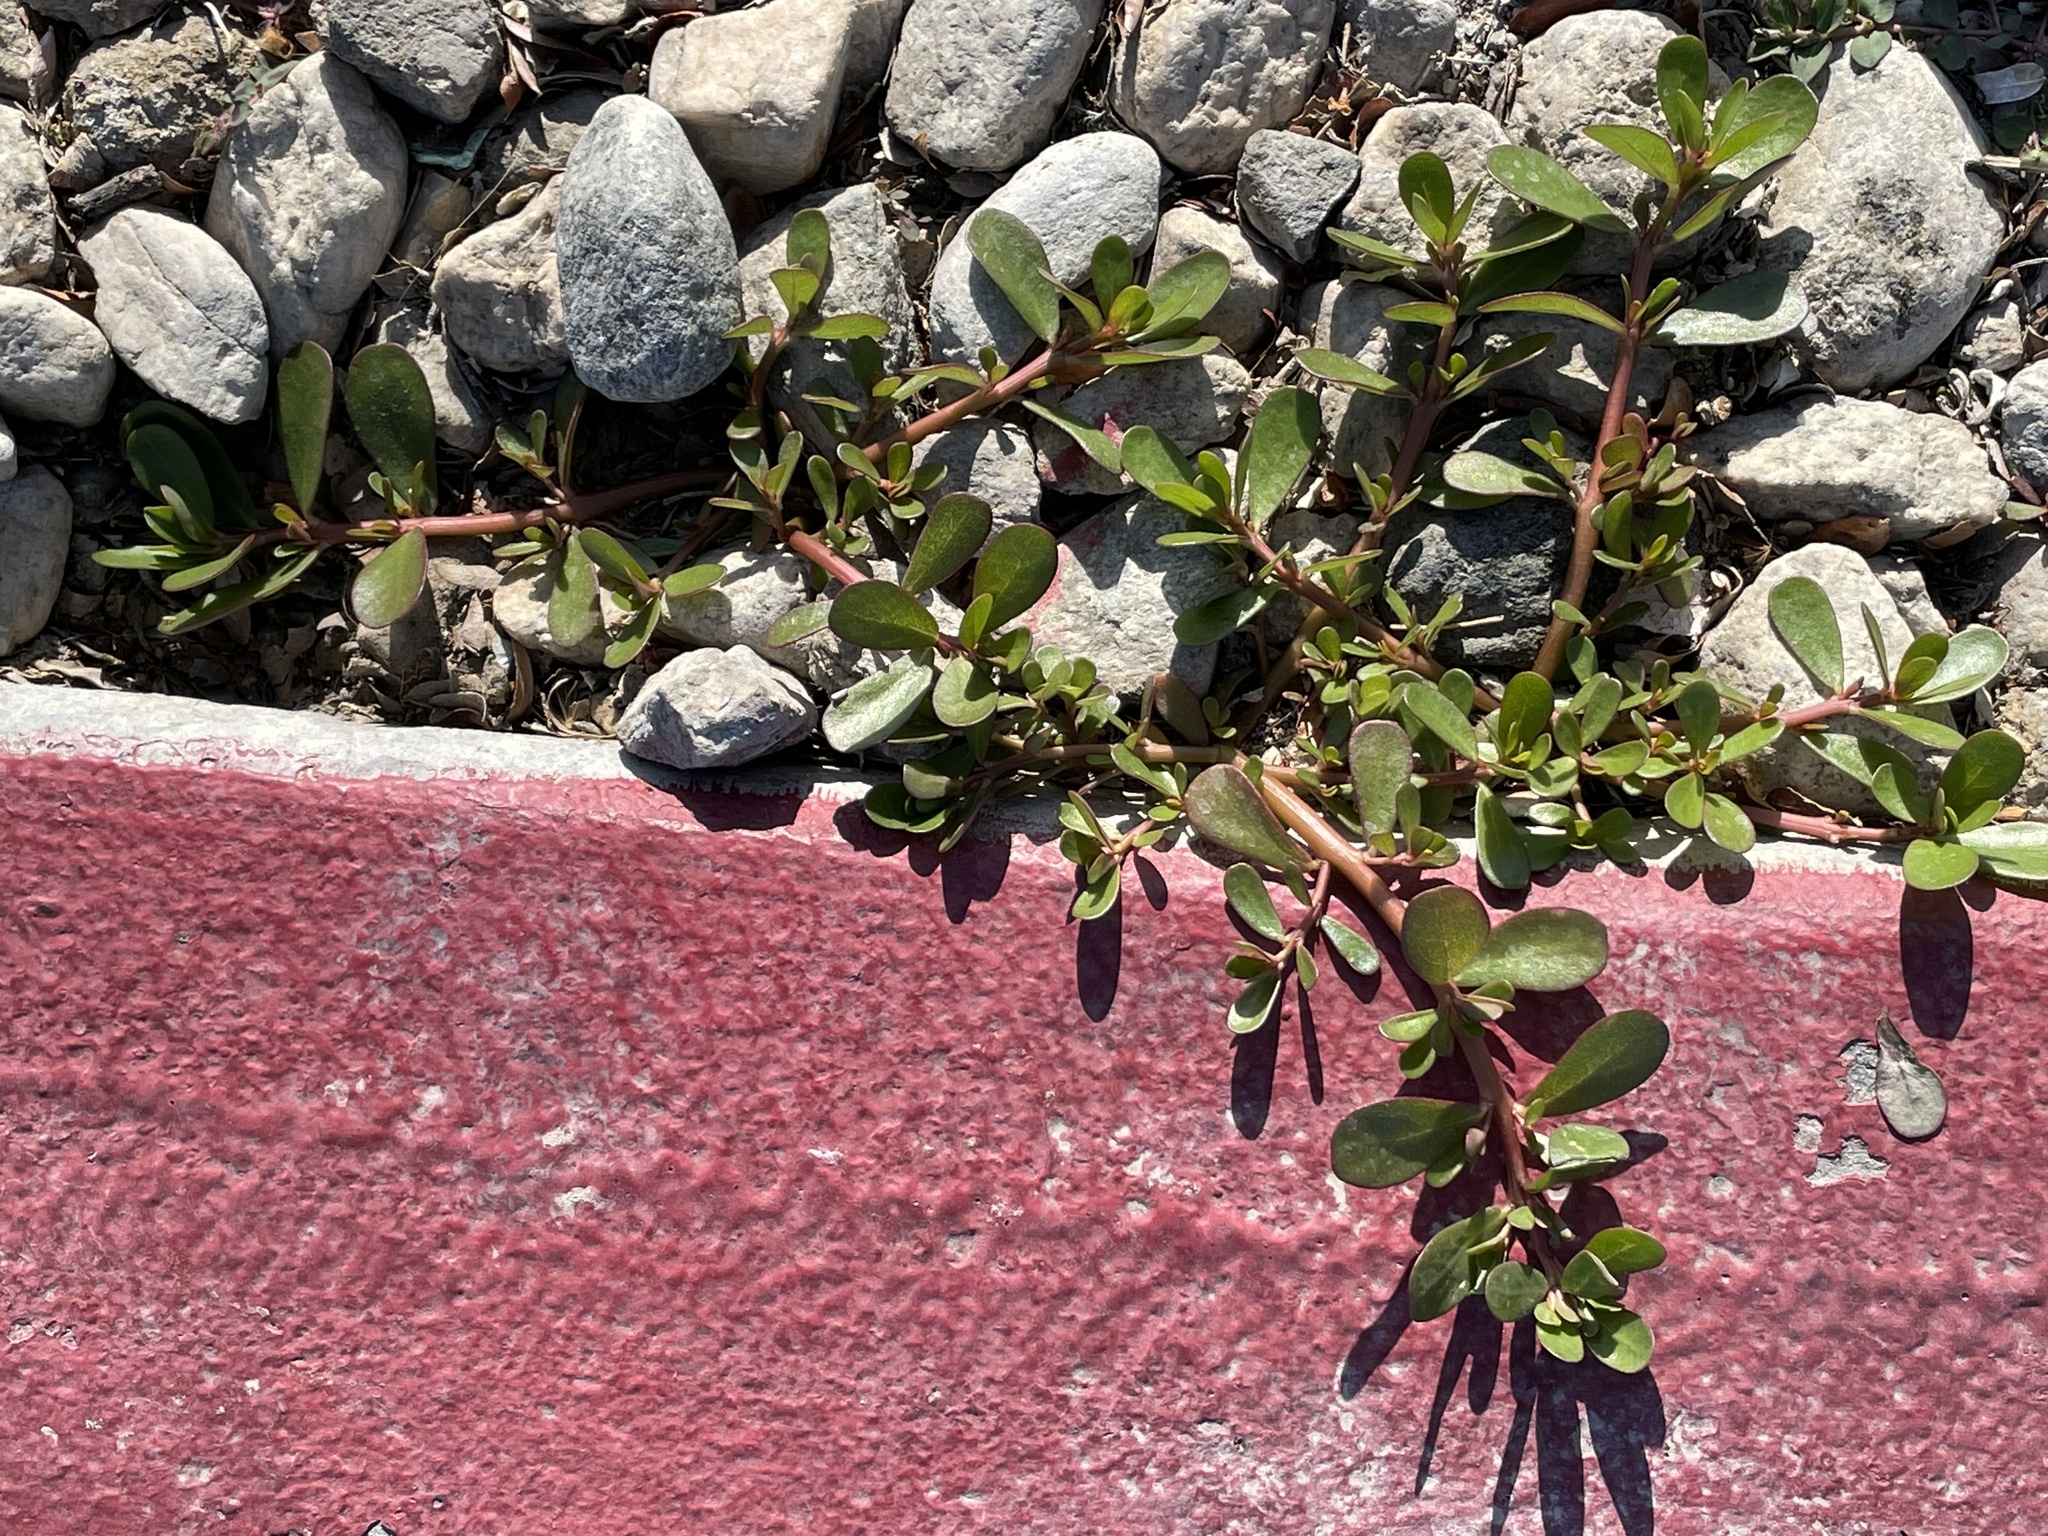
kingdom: Plantae
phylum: Tracheophyta
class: Magnoliopsida
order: Caryophyllales
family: Portulacaceae
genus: Portulaca
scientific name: Portulaca oleracea
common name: Common purslane
